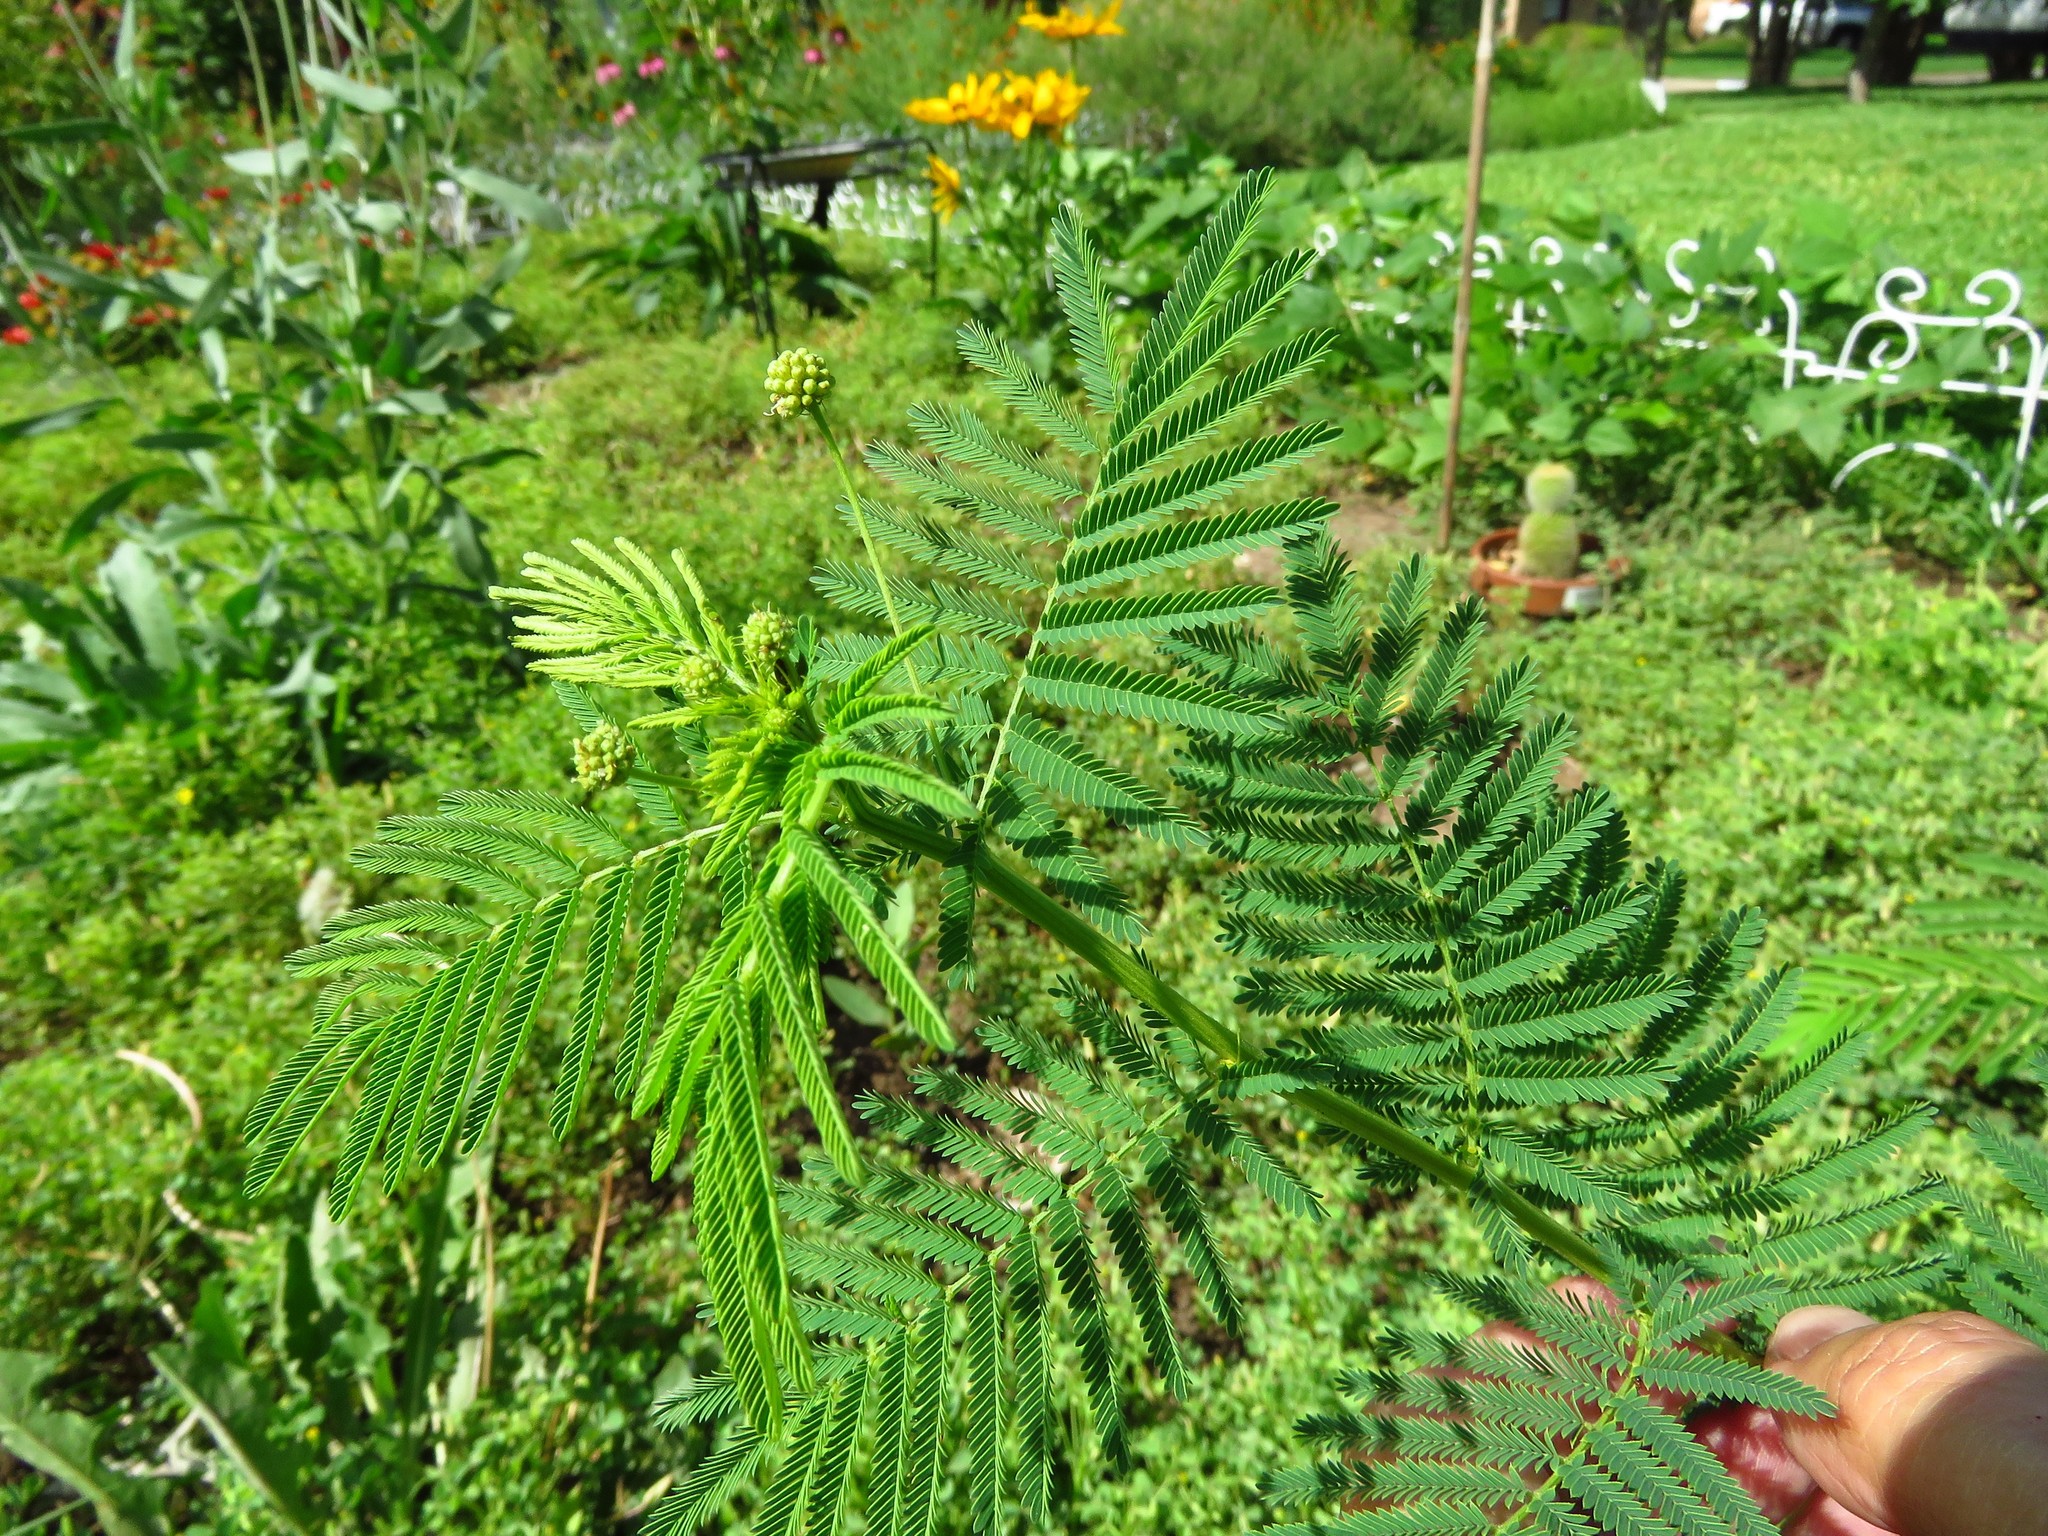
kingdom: Plantae
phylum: Tracheophyta
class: Magnoliopsida
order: Fabales
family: Fabaceae
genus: Desmanthus
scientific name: Desmanthus illinoensis
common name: Illinois bundle-flower
